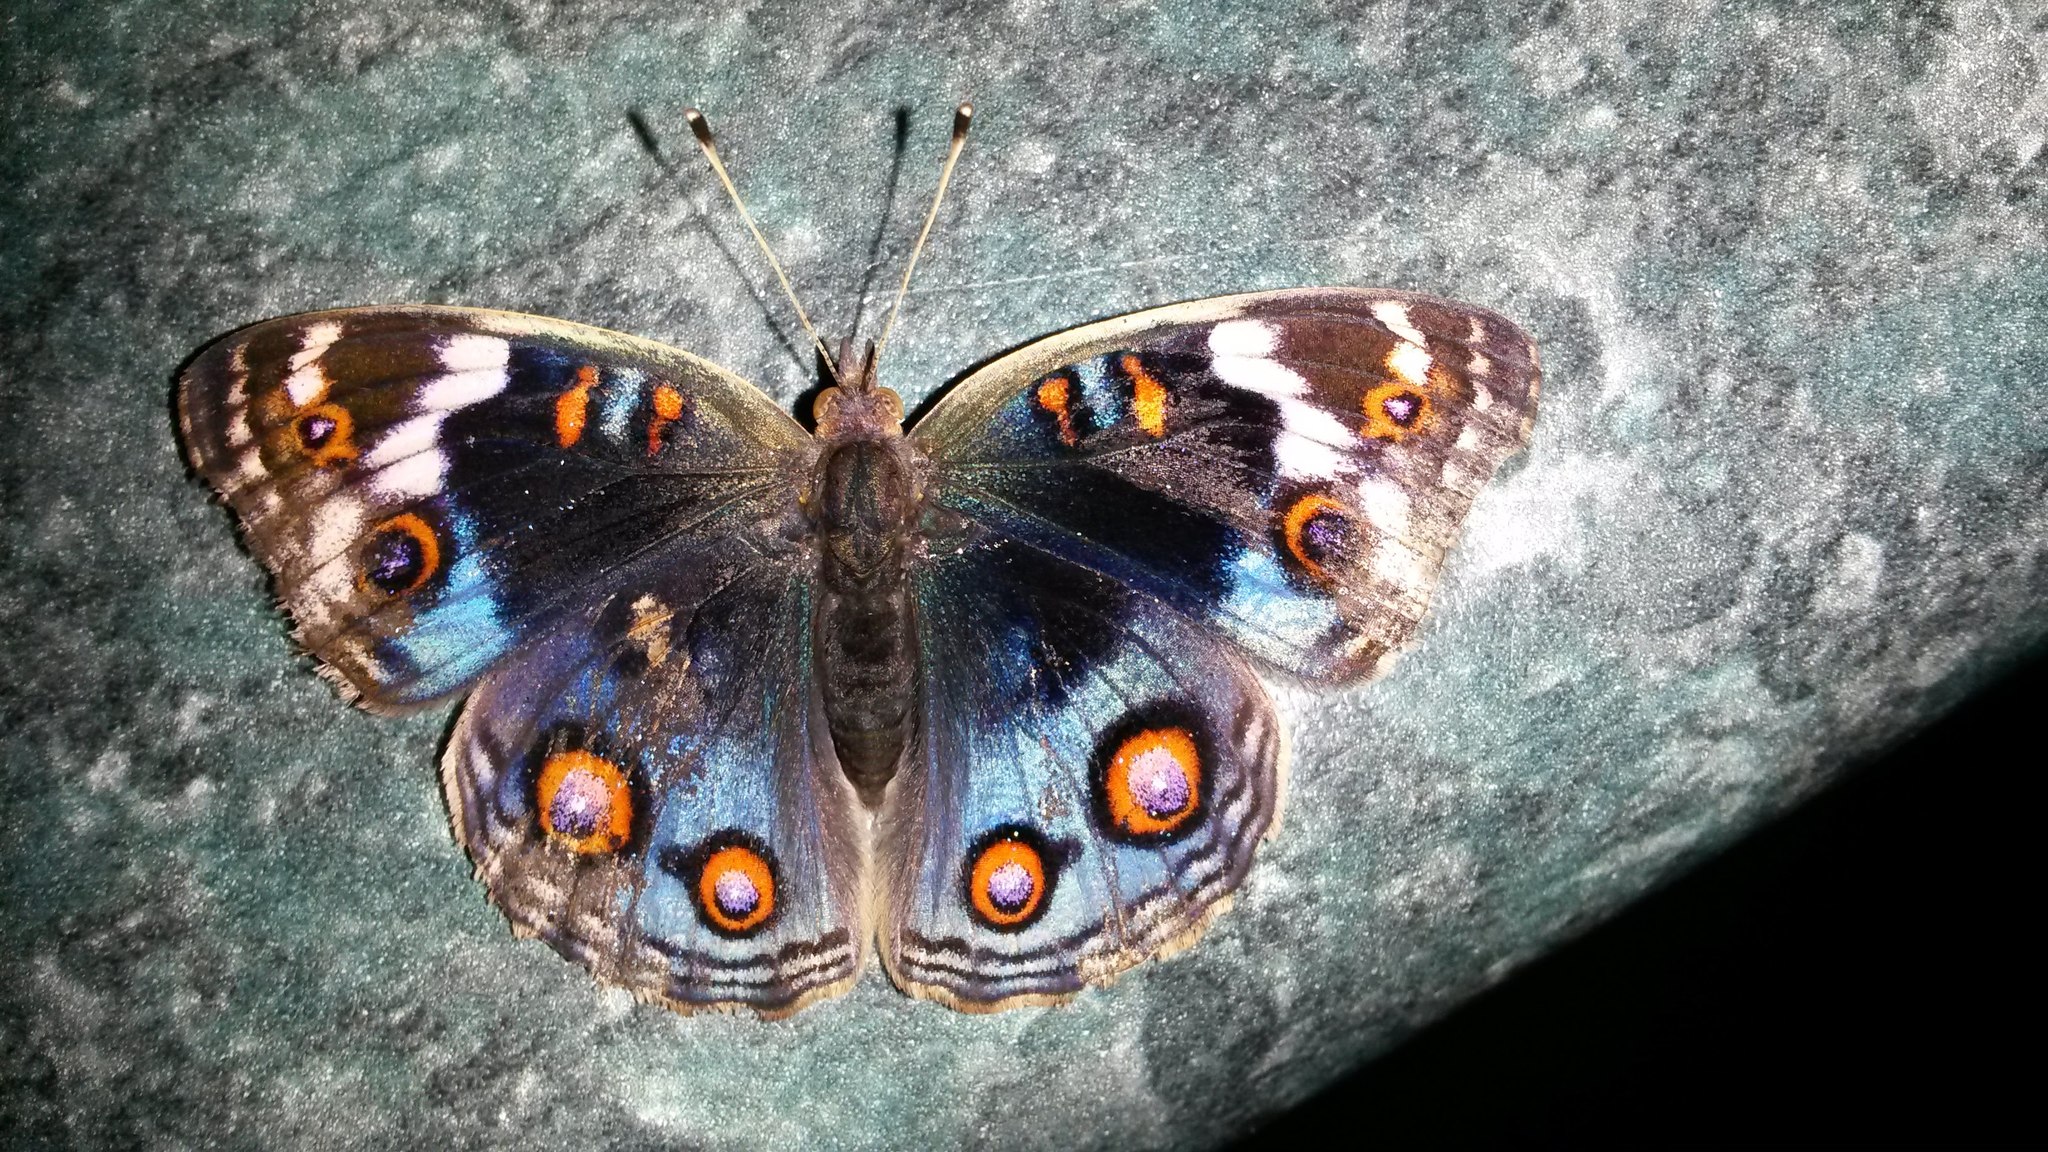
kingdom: Animalia
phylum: Arthropoda
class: Insecta
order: Lepidoptera
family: Nymphalidae
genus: Junonia
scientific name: Junonia orithya
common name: Blue pansy
